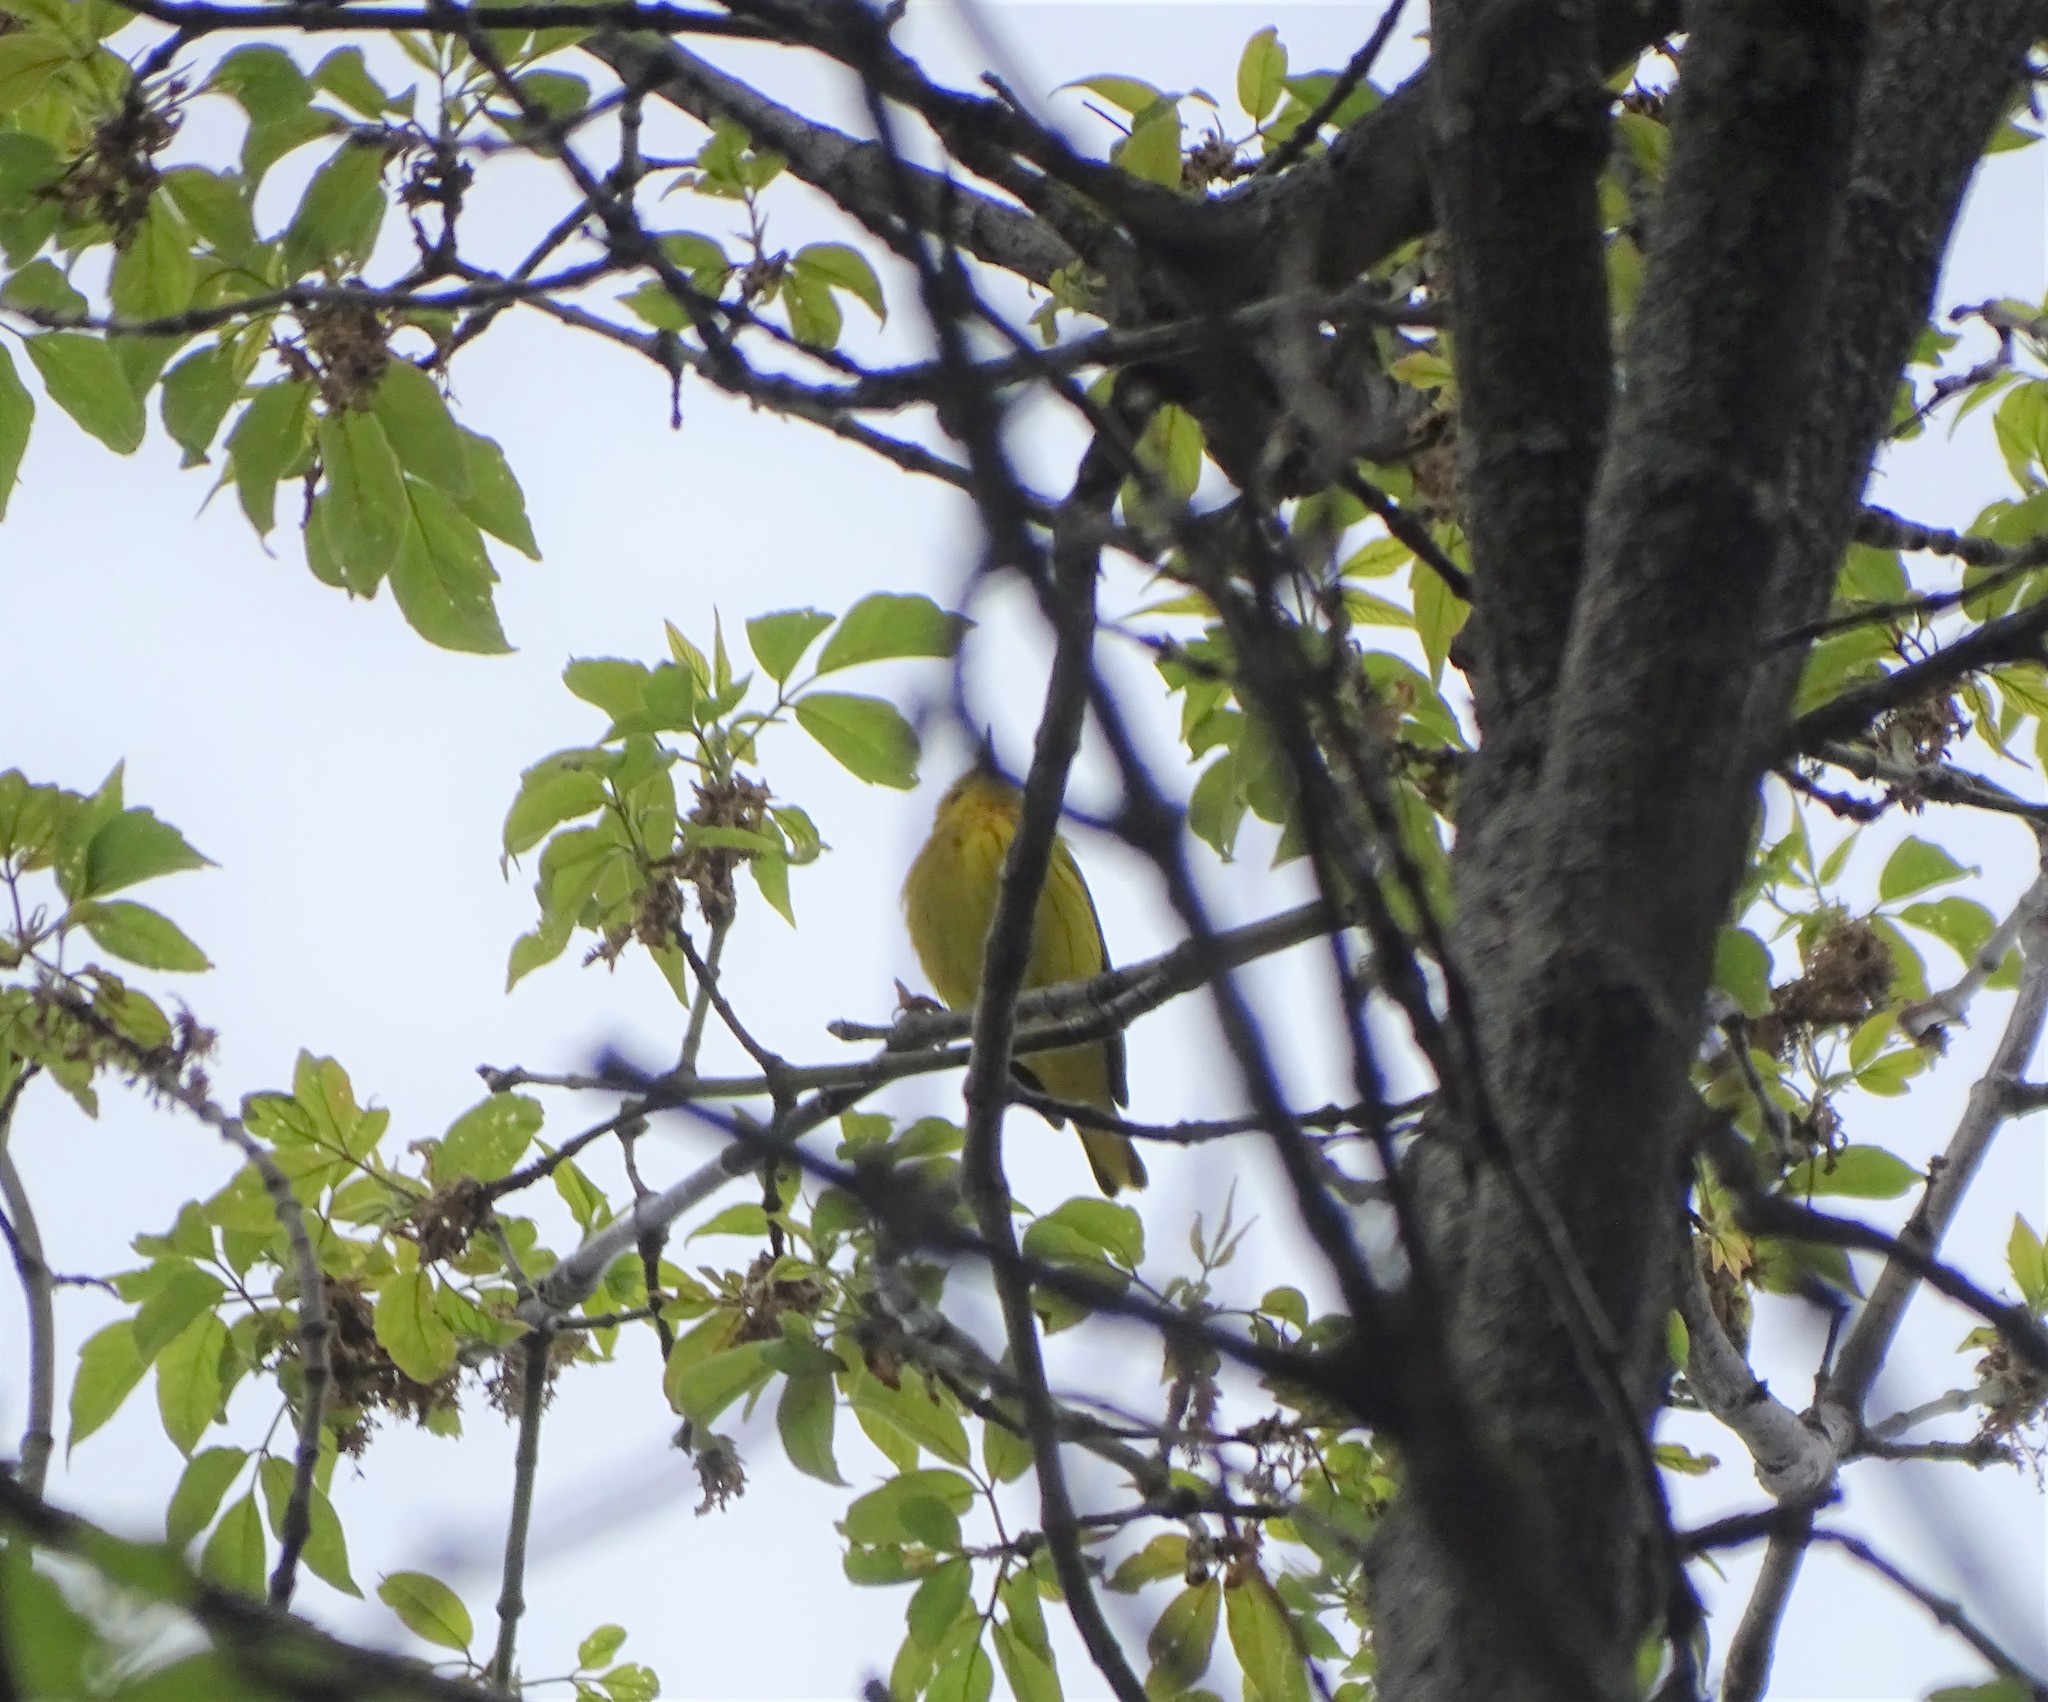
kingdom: Animalia
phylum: Chordata
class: Aves
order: Passeriformes
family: Parulidae
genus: Setophaga
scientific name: Setophaga petechia
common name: Yellow warbler
